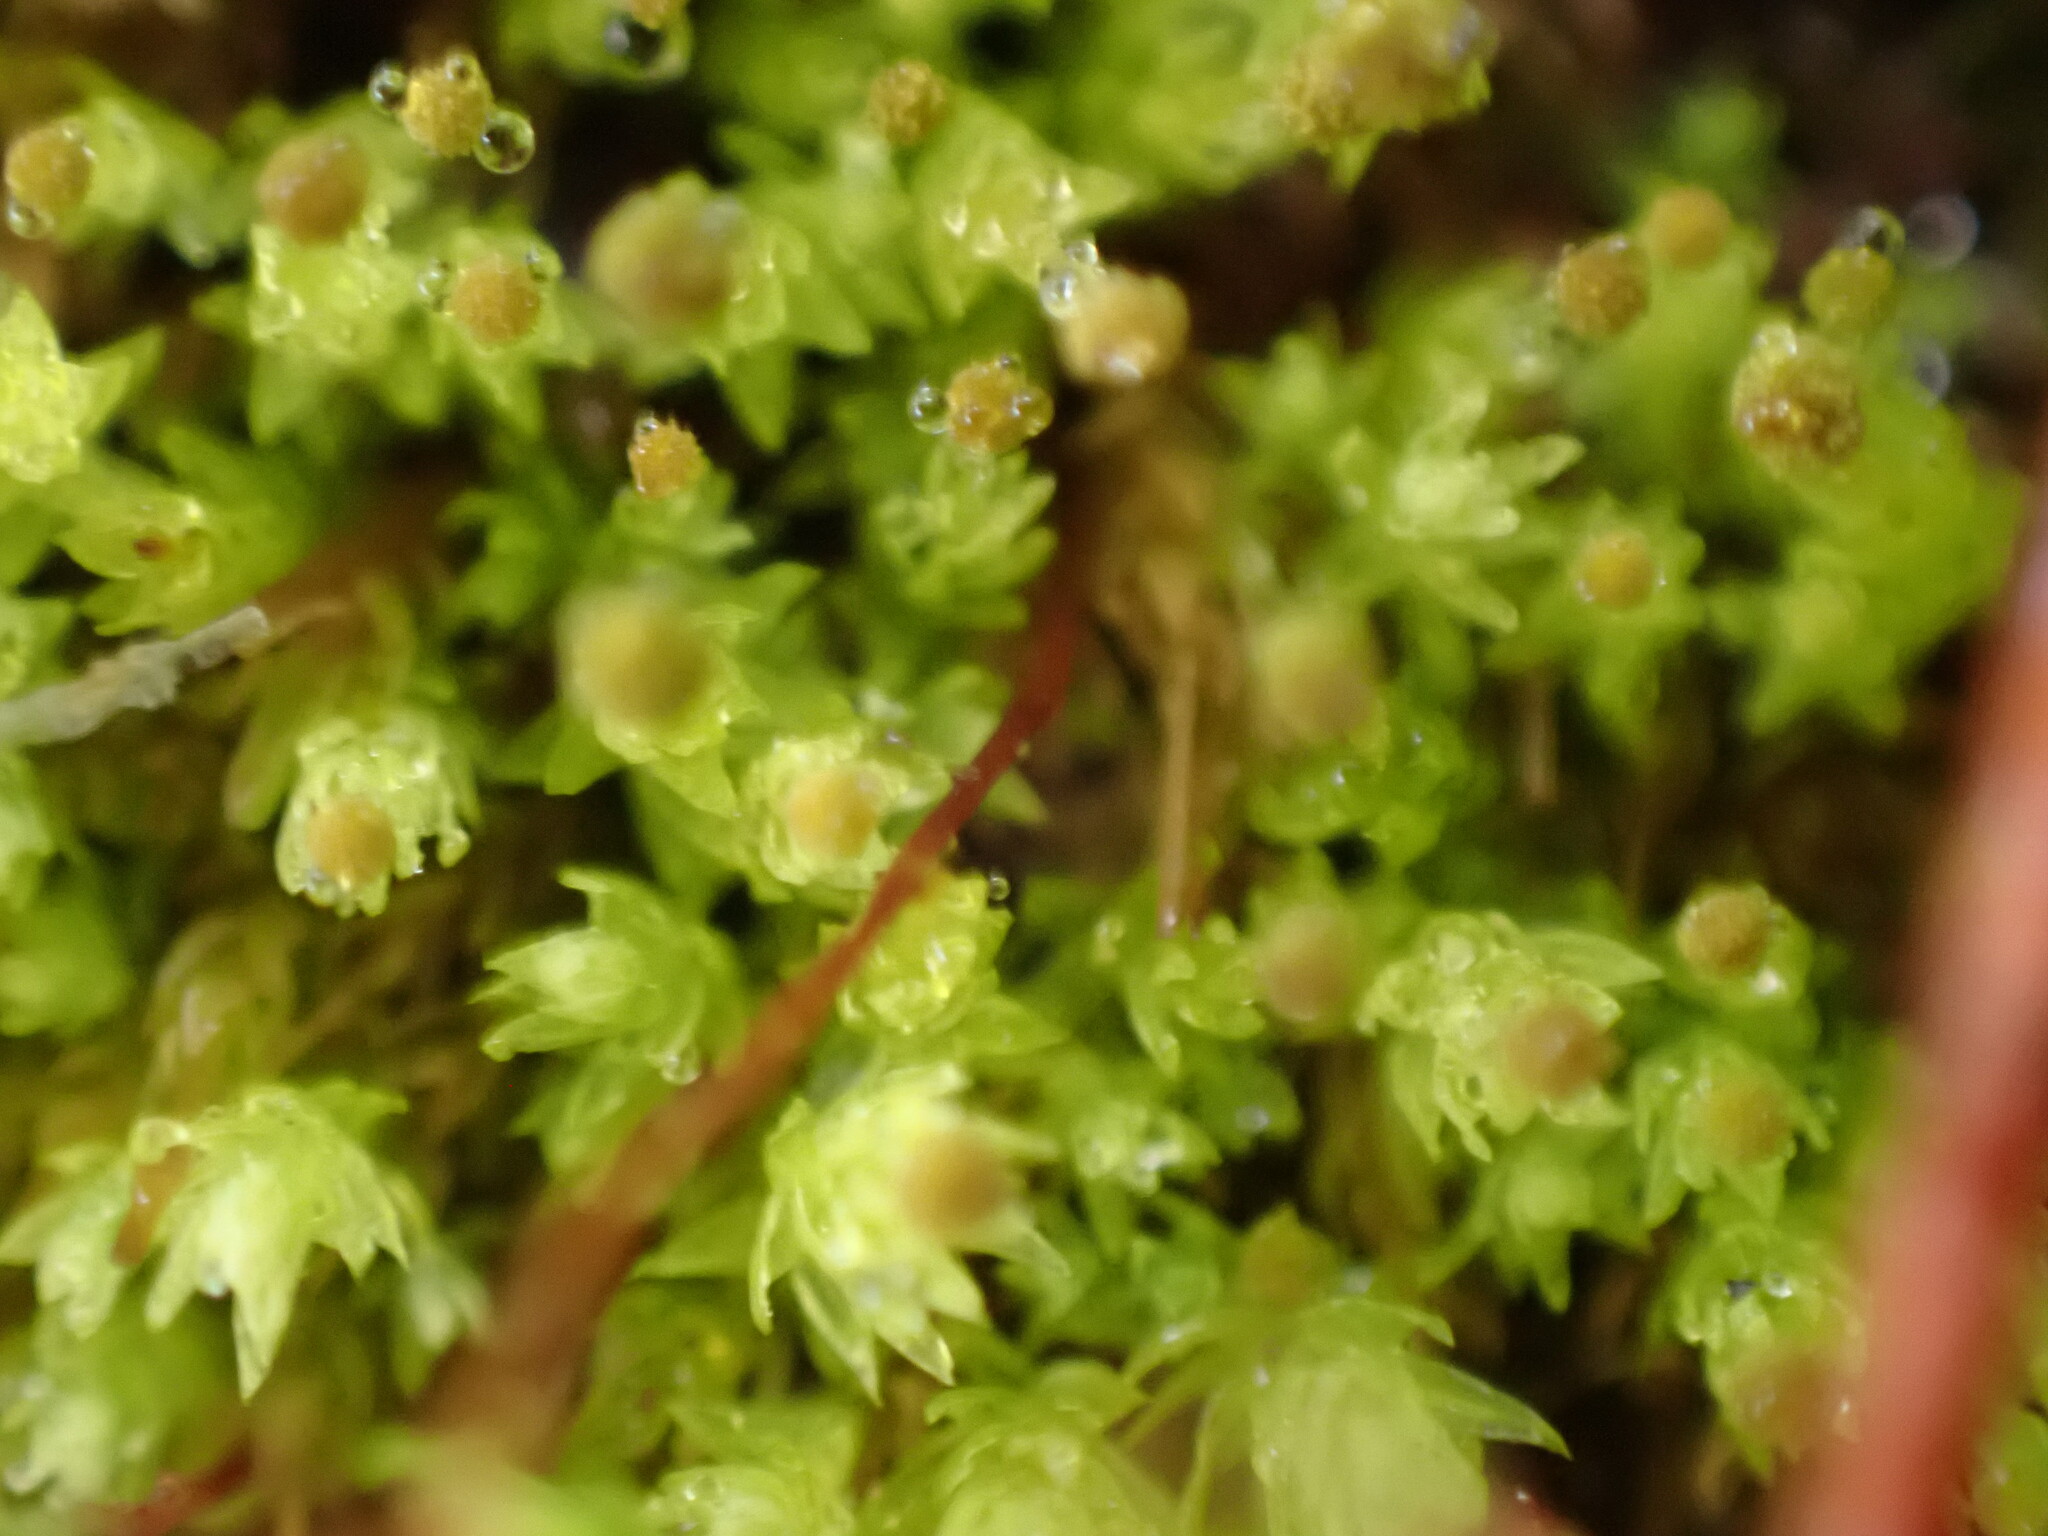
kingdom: Plantae
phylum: Bryophyta
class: Bryopsida
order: Aulacomniales
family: Aulacomniaceae
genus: Aulacomnium
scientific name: Aulacomnium androgynum
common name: Little groove moss
